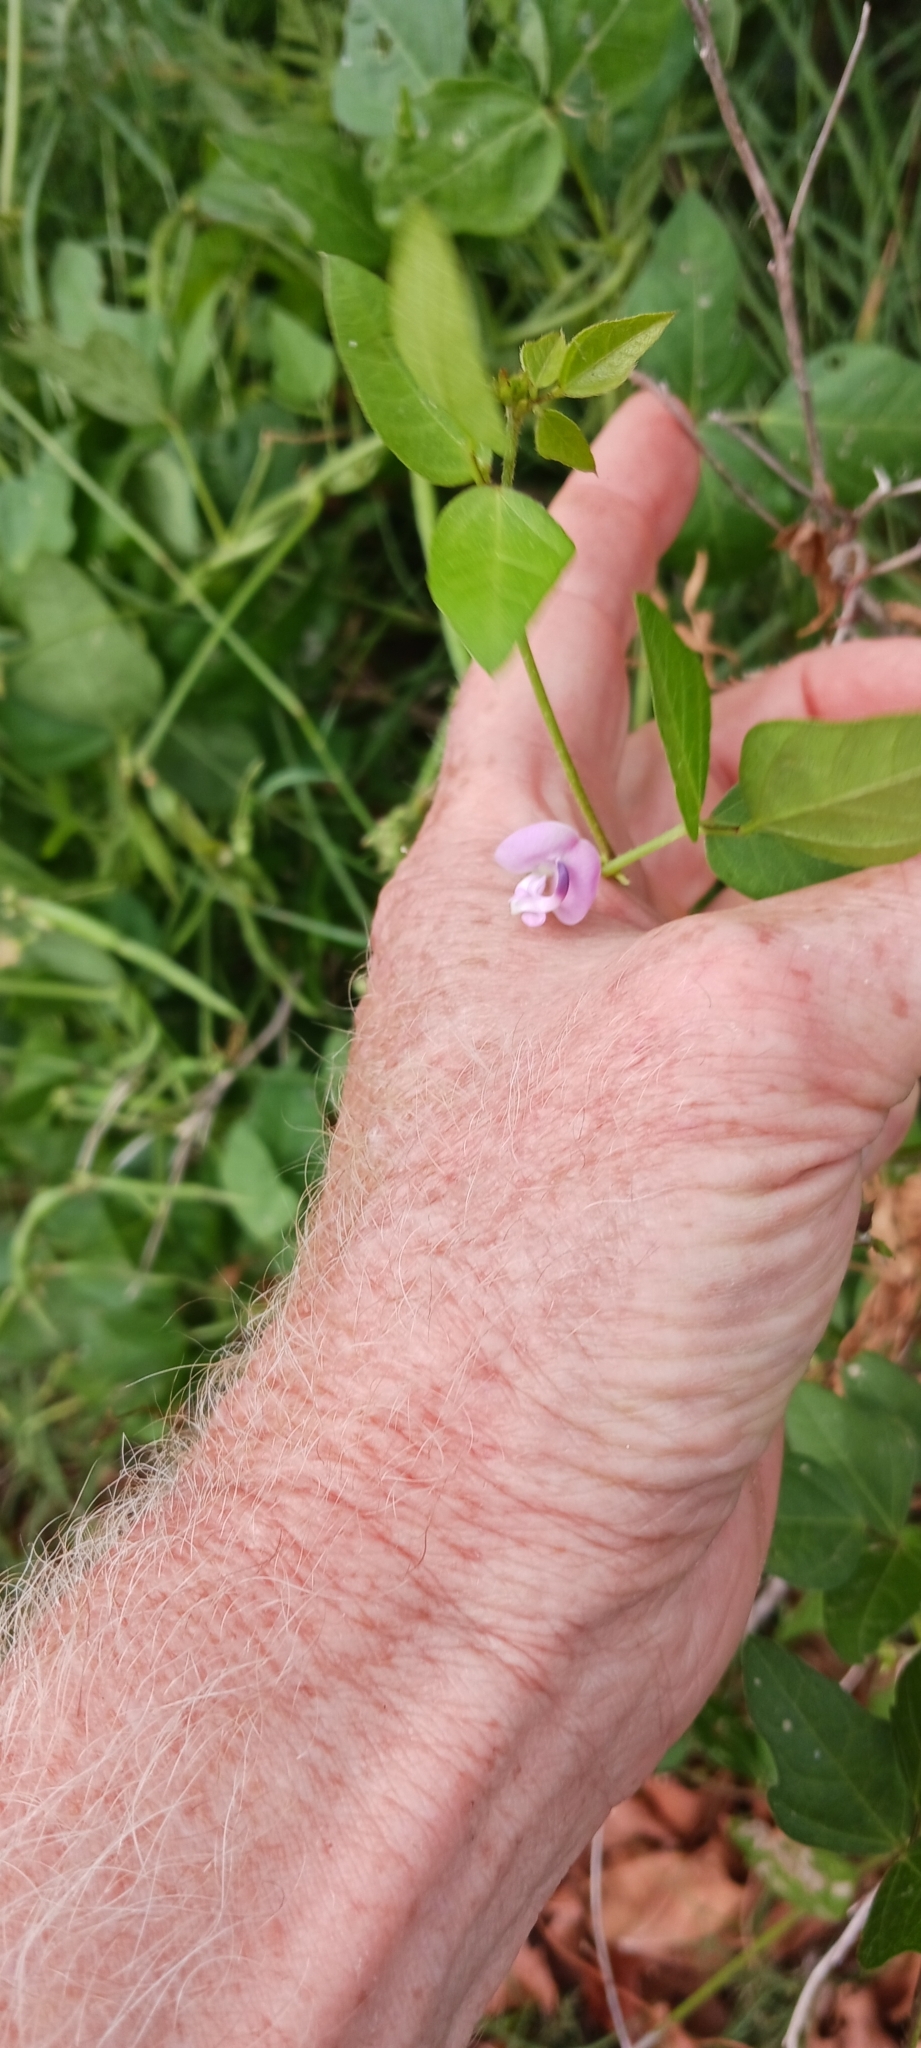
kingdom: Plantae
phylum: Tracheophyta
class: Magnoliopsida
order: Fabales
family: Fabaceae
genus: Strophostyles
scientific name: Strophostyles helvola
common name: Trailing wild bean
